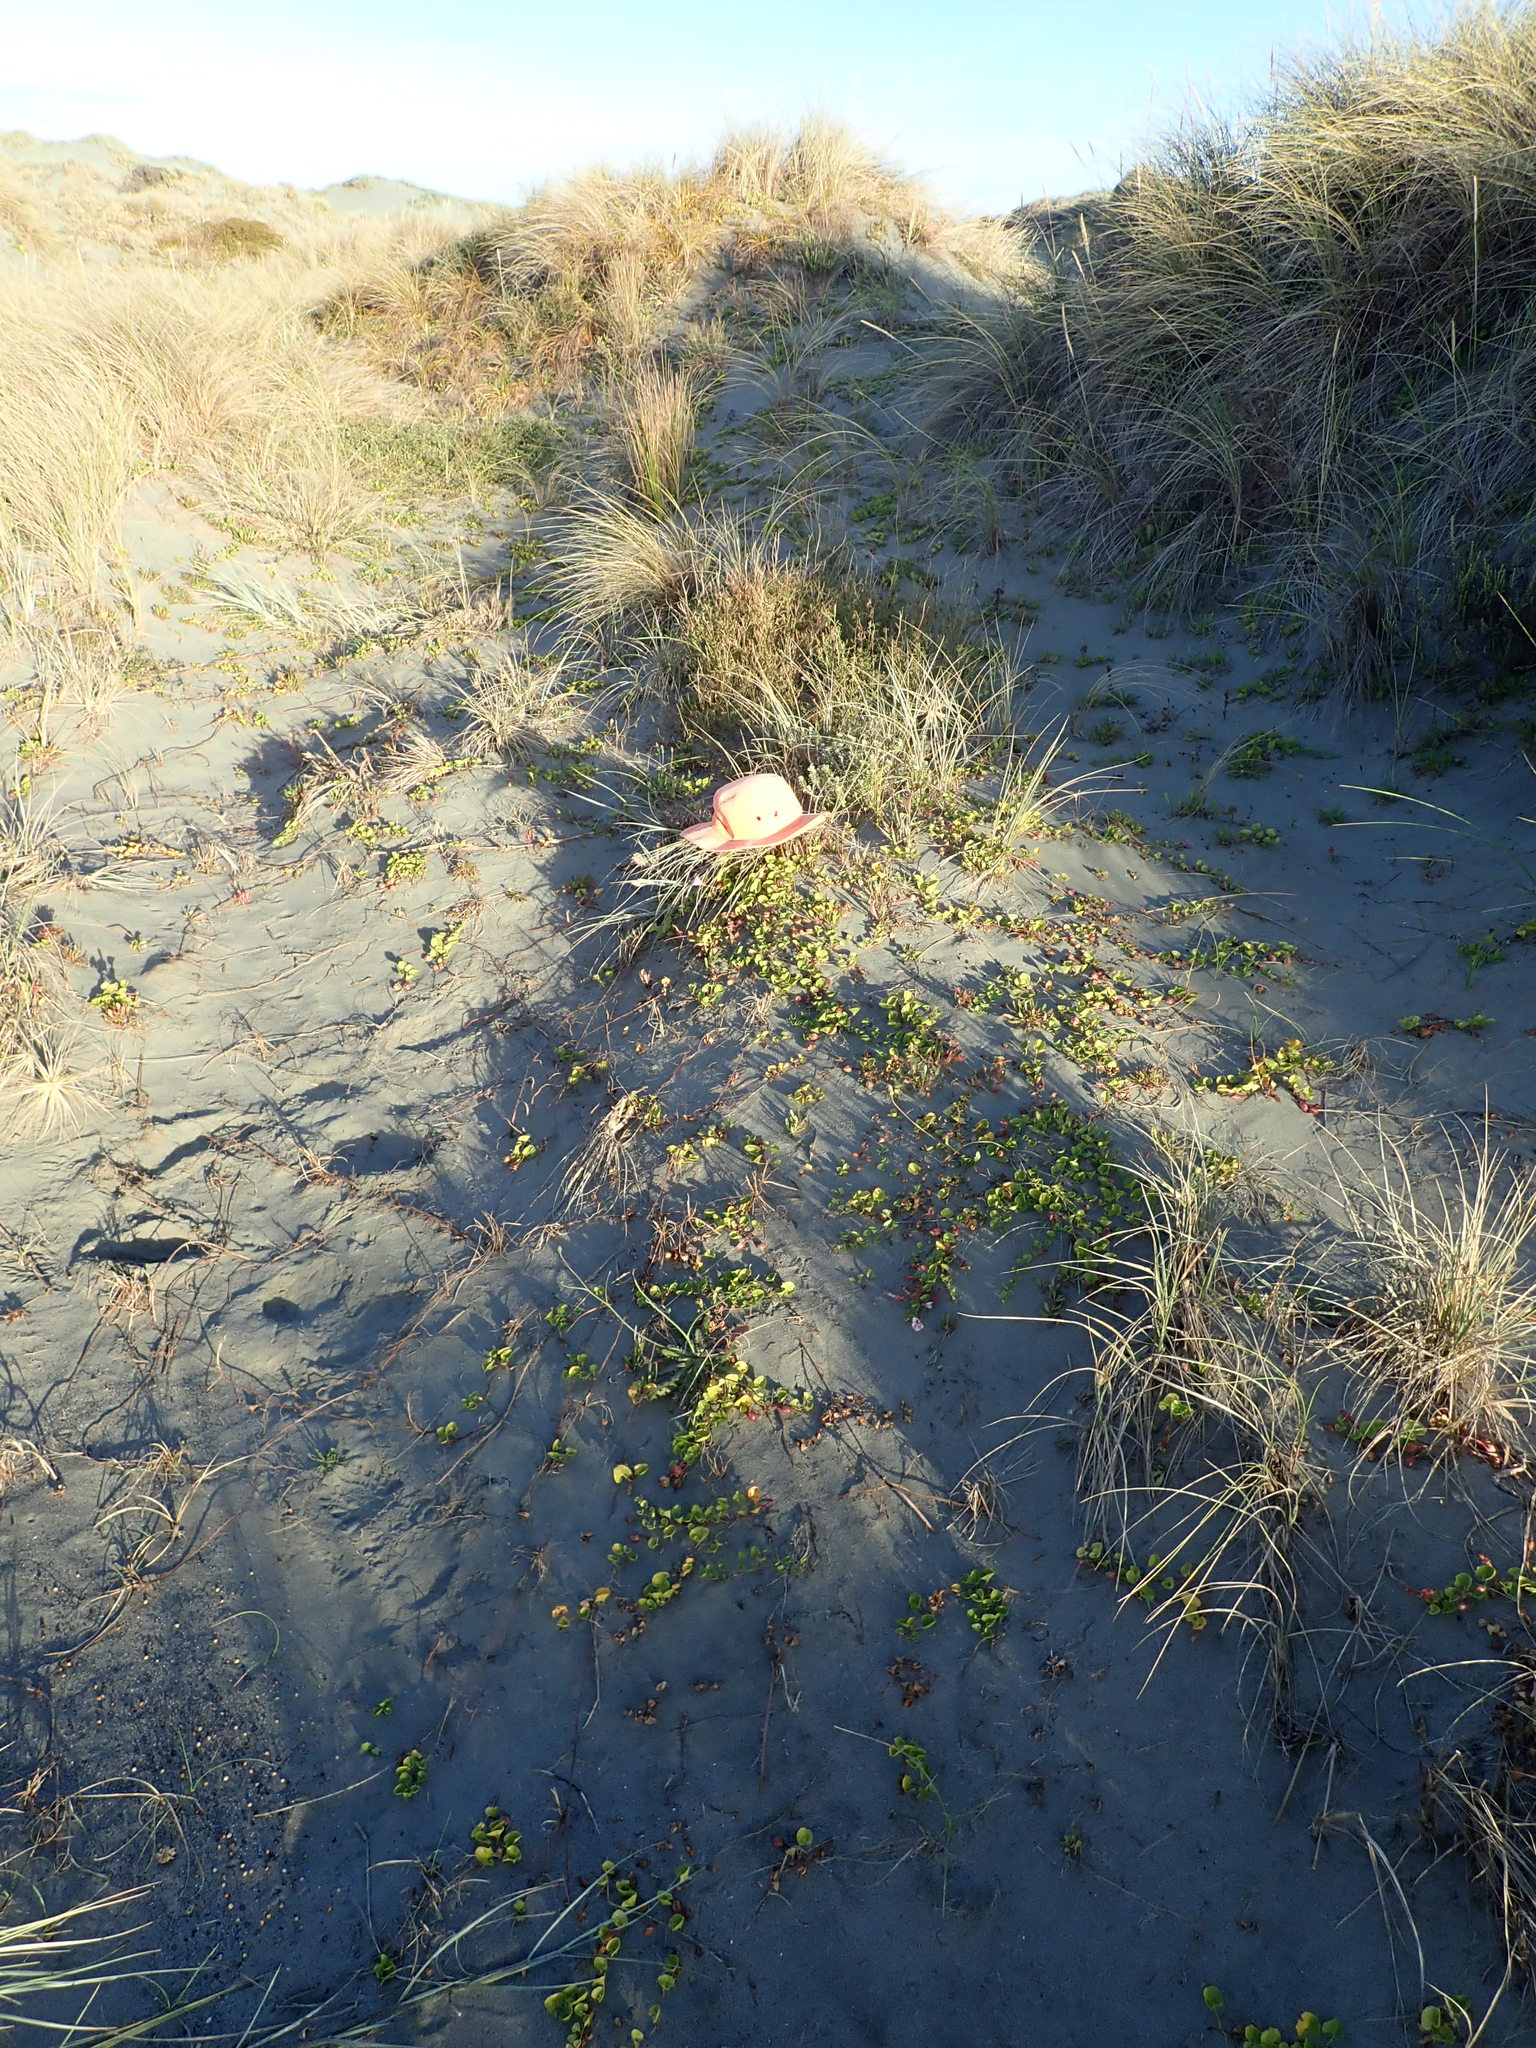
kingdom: Plantae
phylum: Tracheophyta
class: Magnoliopsida
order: Solanales
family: Convolvulaceae
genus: Calystegia
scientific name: Calystegia soldanella
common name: Sea bindweed
